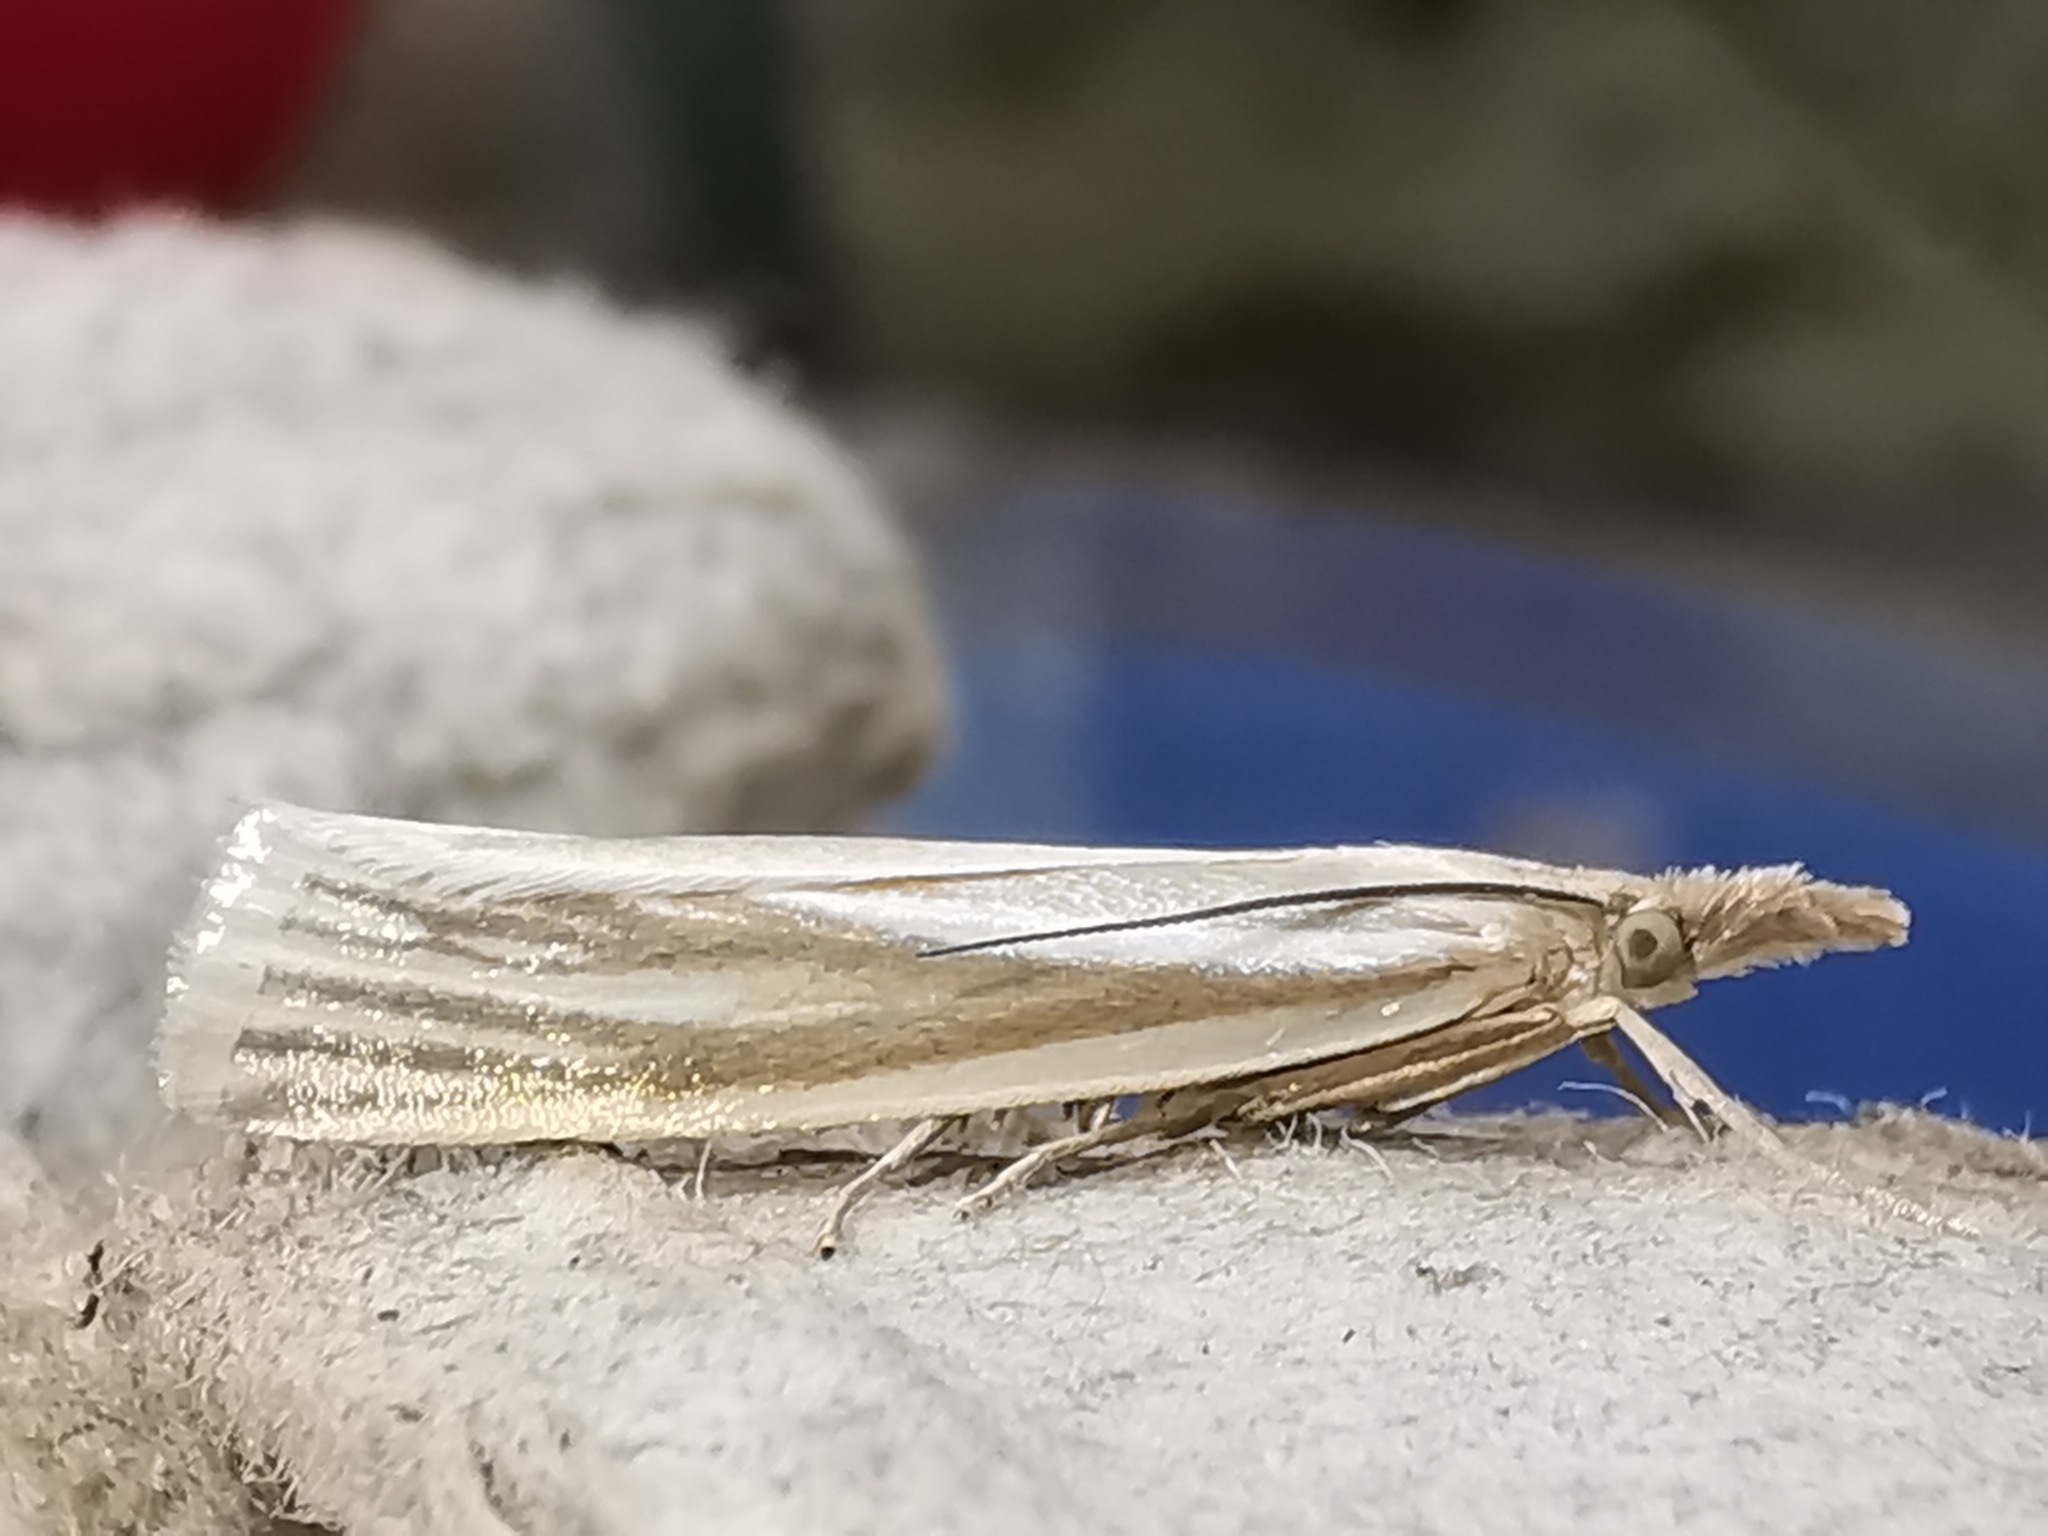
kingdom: Animalia
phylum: Arthropoda
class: Insecta
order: Lepidoptera
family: Crambidae
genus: Crambus
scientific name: Crambus perlellus
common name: Yellow satin veneer
